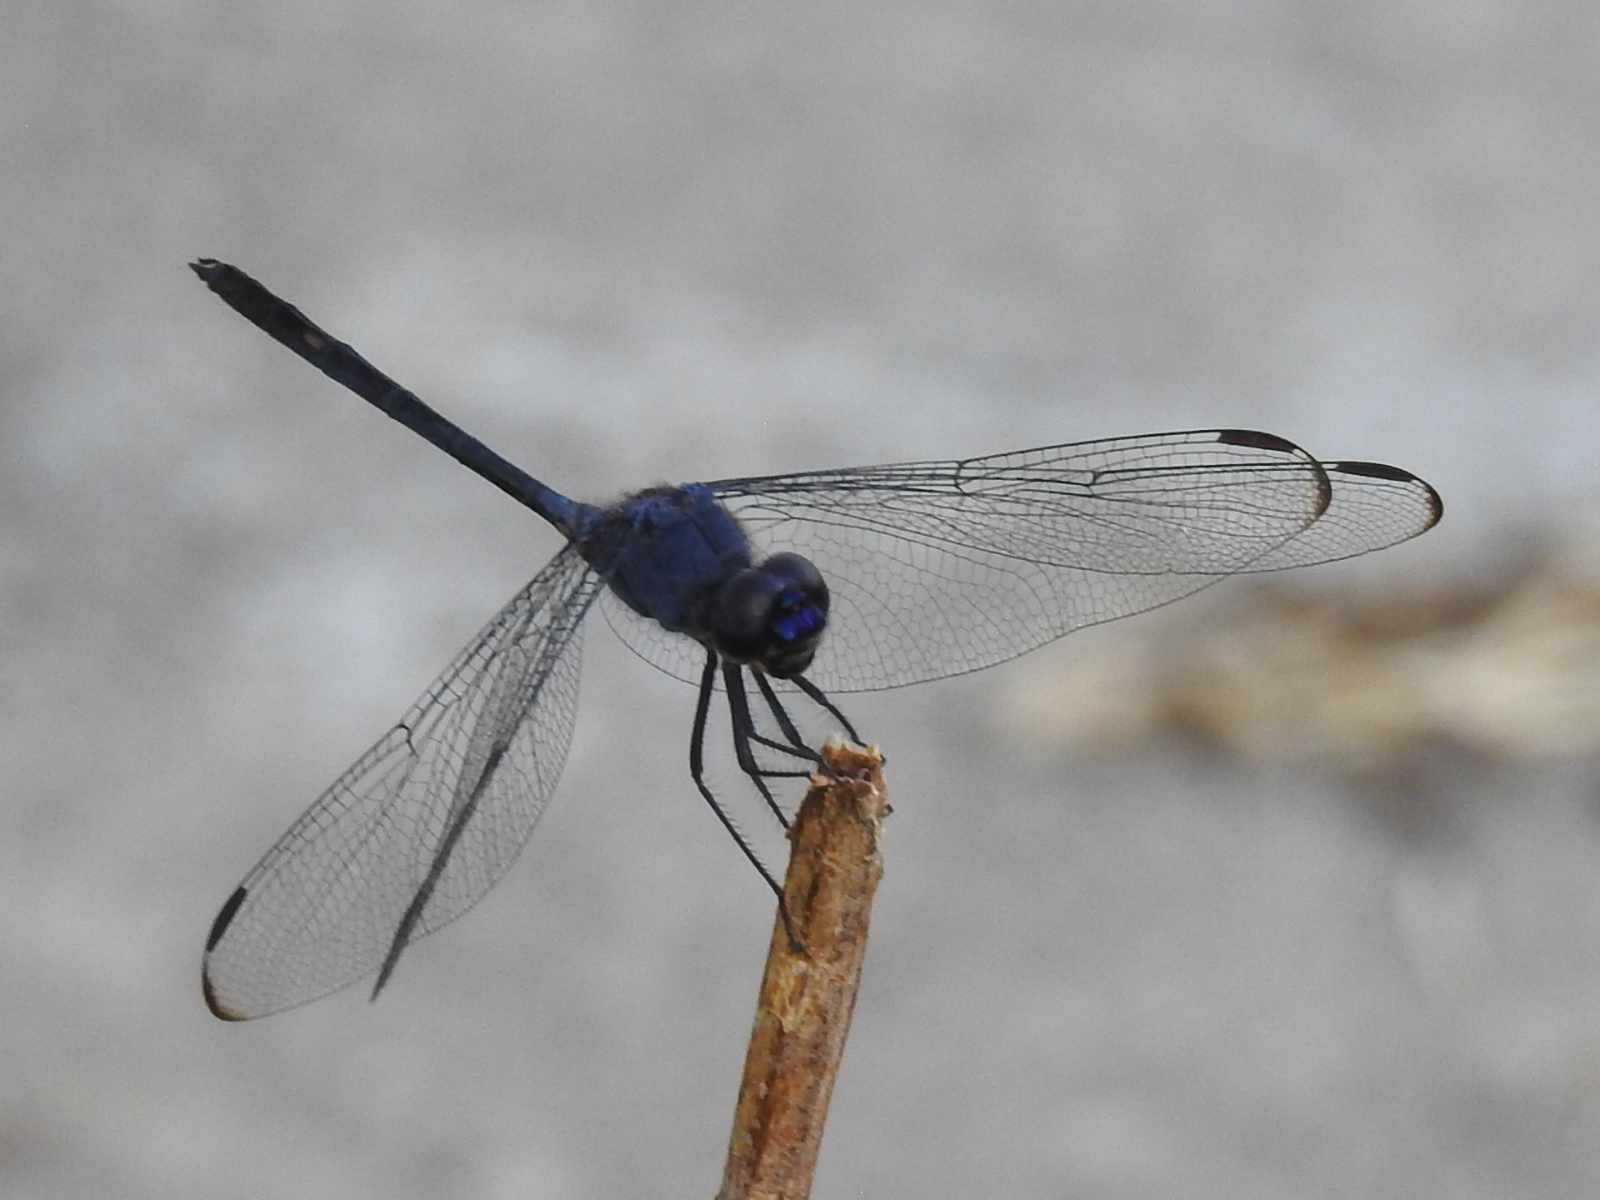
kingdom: Animalia
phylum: Arthropoda
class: Insecta
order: Odonata
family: Libellulidae
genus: Dythemis
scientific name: Dythemis nigrescens
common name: Black setwing
